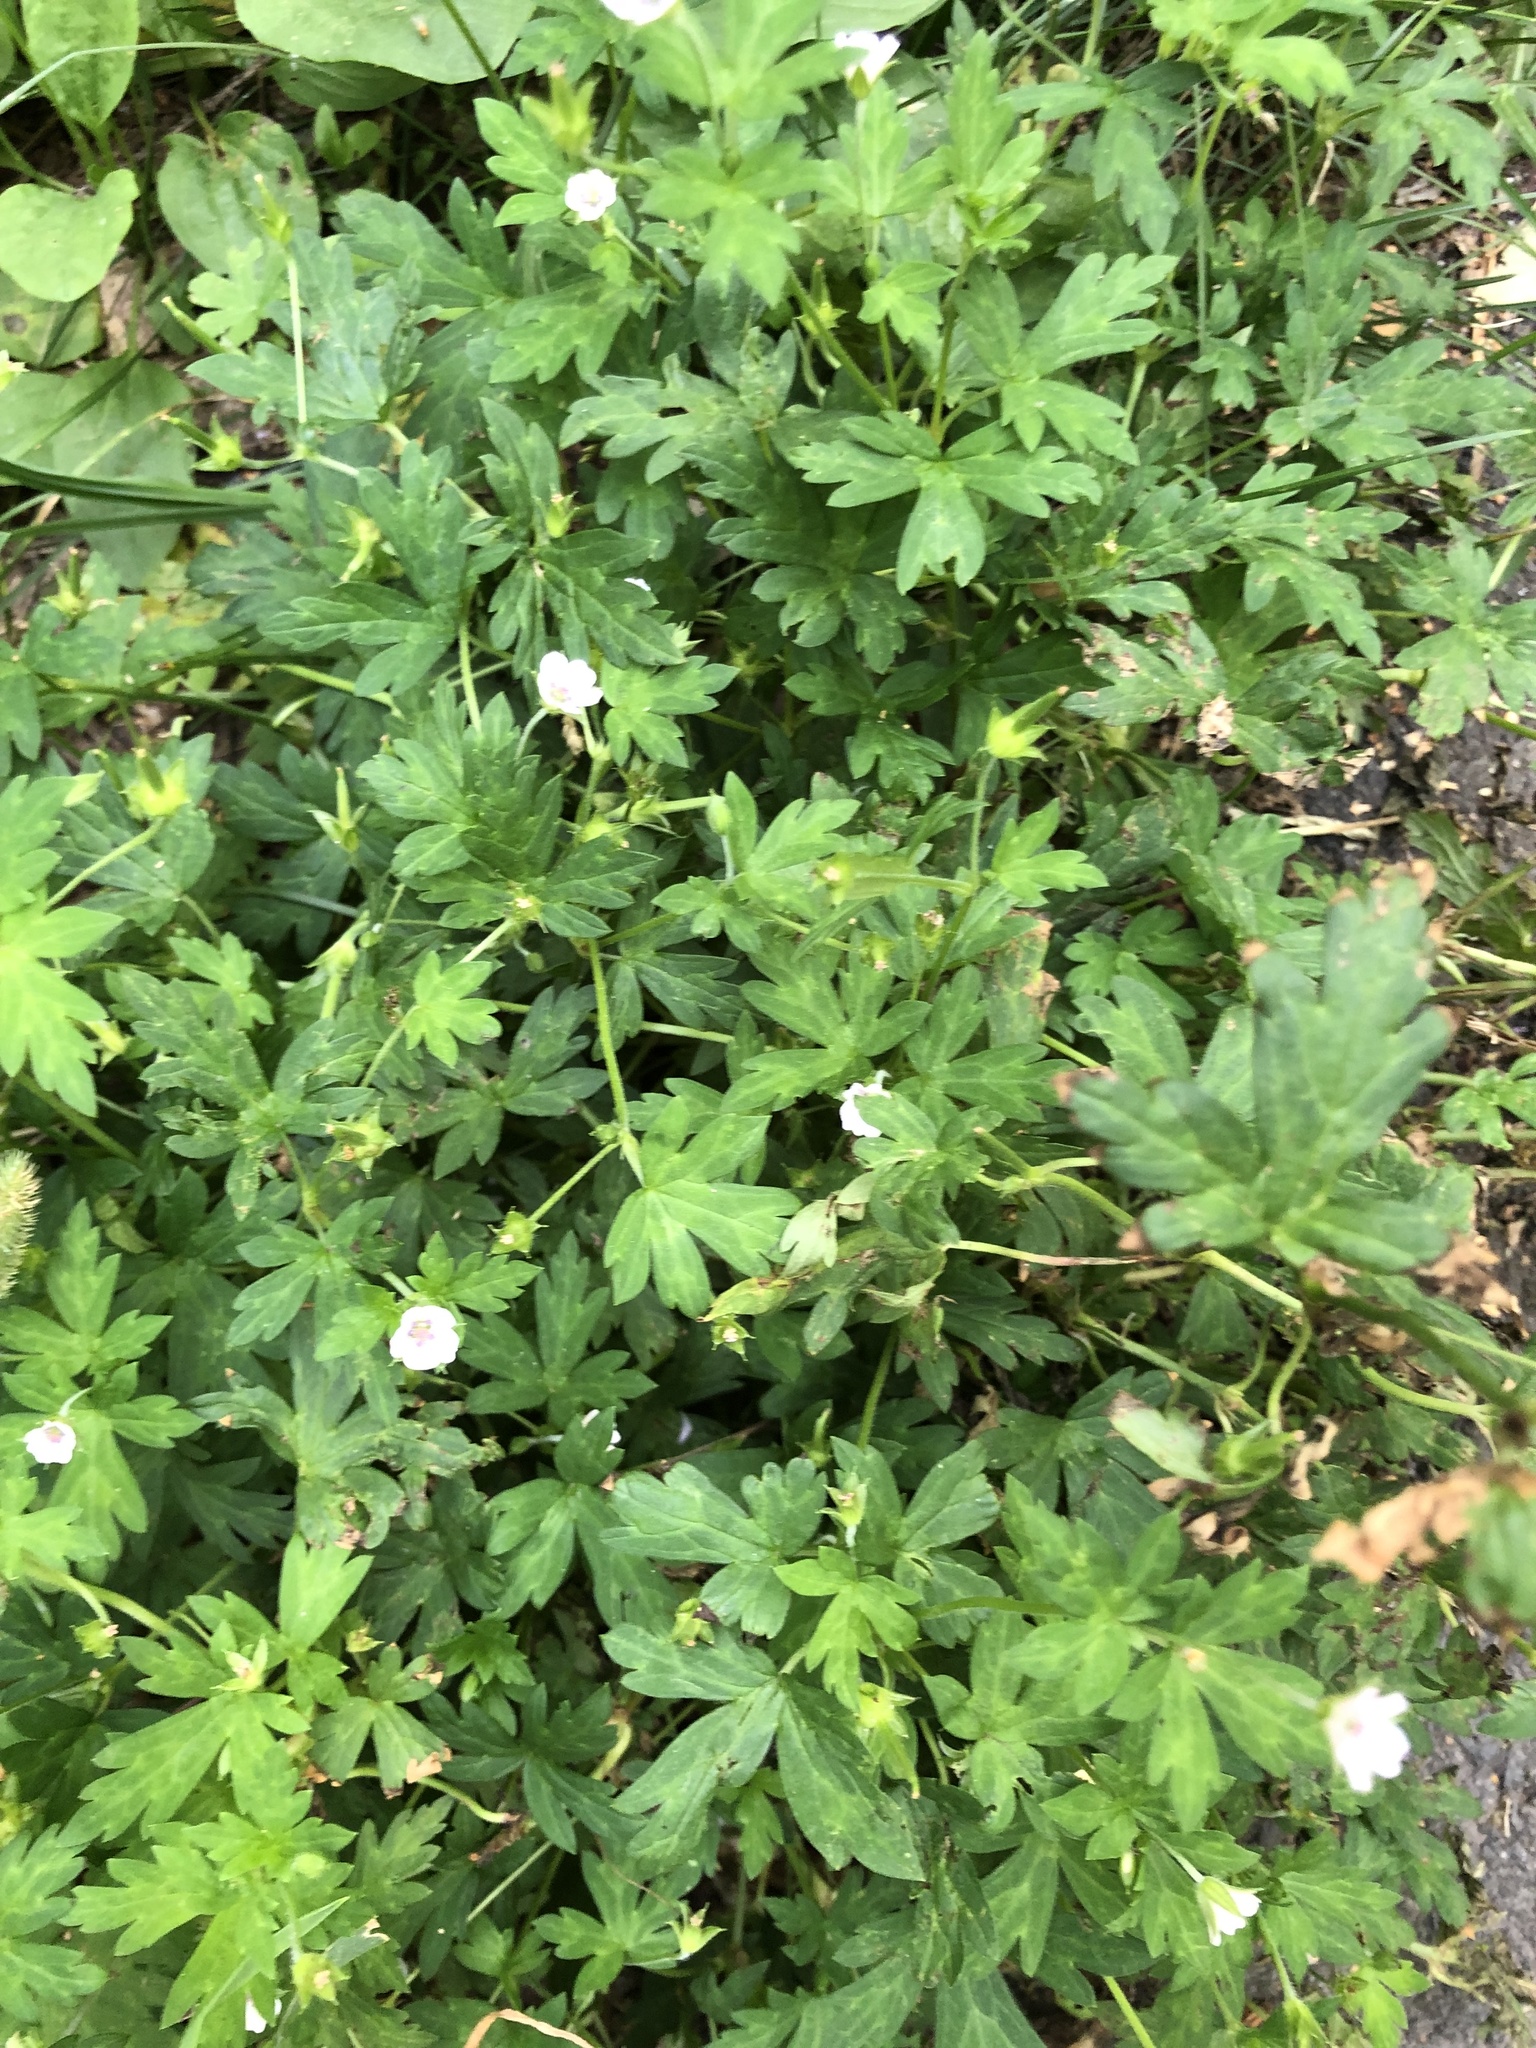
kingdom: Plantae
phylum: Tracheophyta
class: Magnoliopsida
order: Geraniales
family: Geraniaceae
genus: Geranium
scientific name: Geranium sibiricum
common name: Siberian crane's-bill
